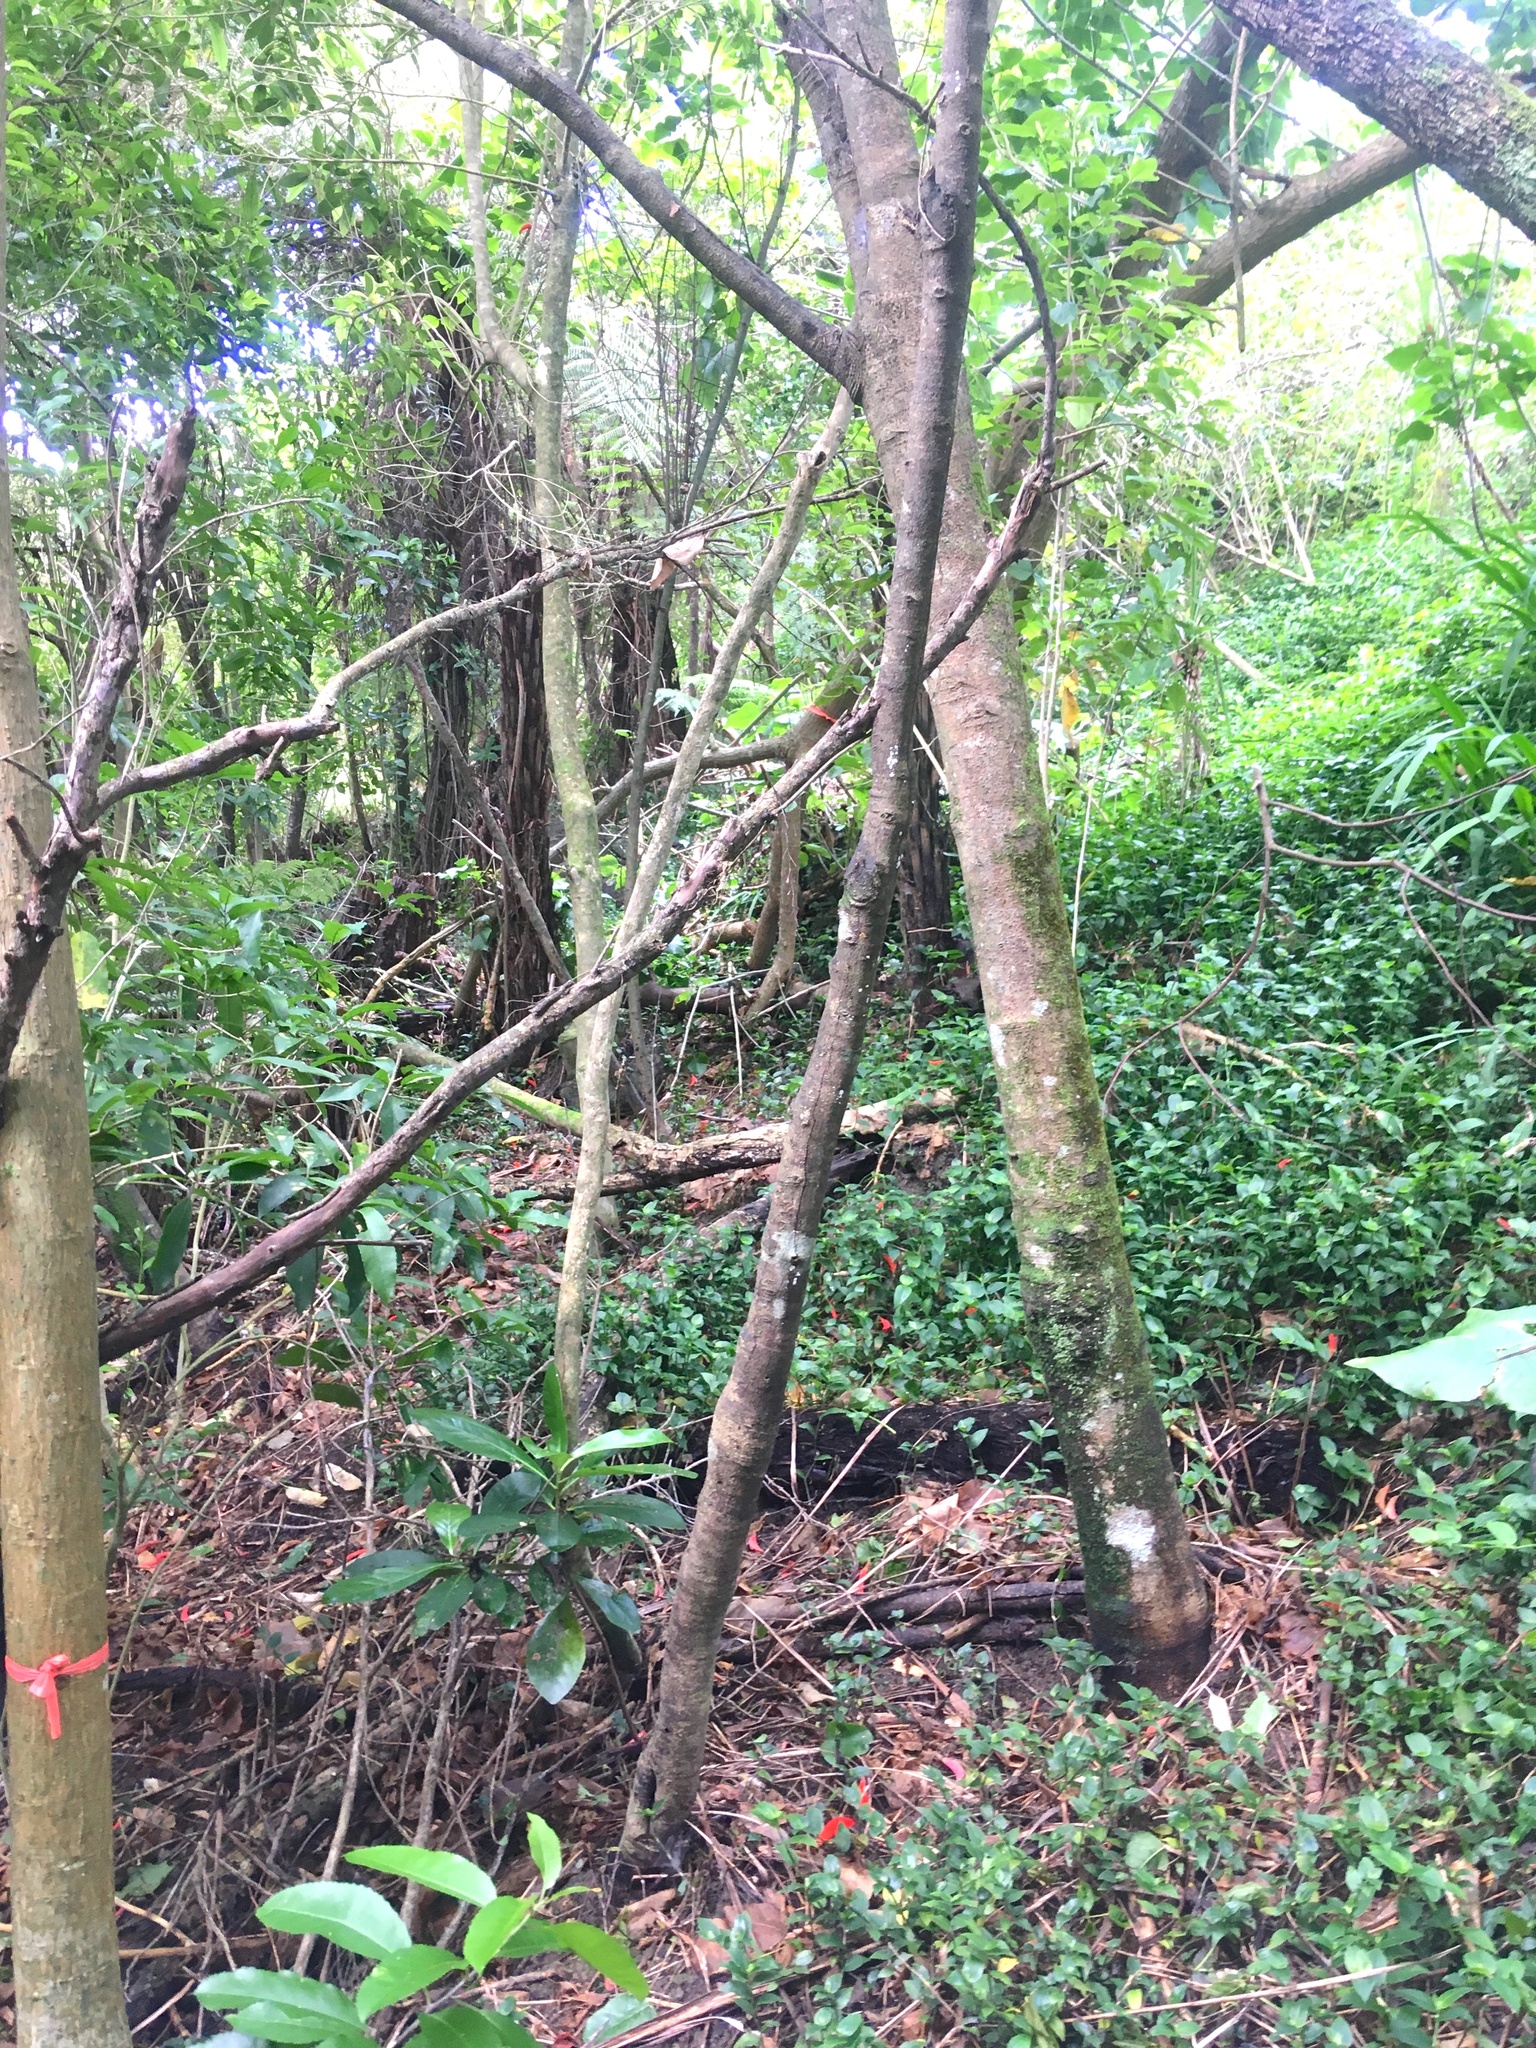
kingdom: Plantae
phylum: Tracheophyta
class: Magnoliopsida
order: Malpighiales
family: Violaceae
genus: Melicytus
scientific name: Melicytus ramiflorus
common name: Mahoe
